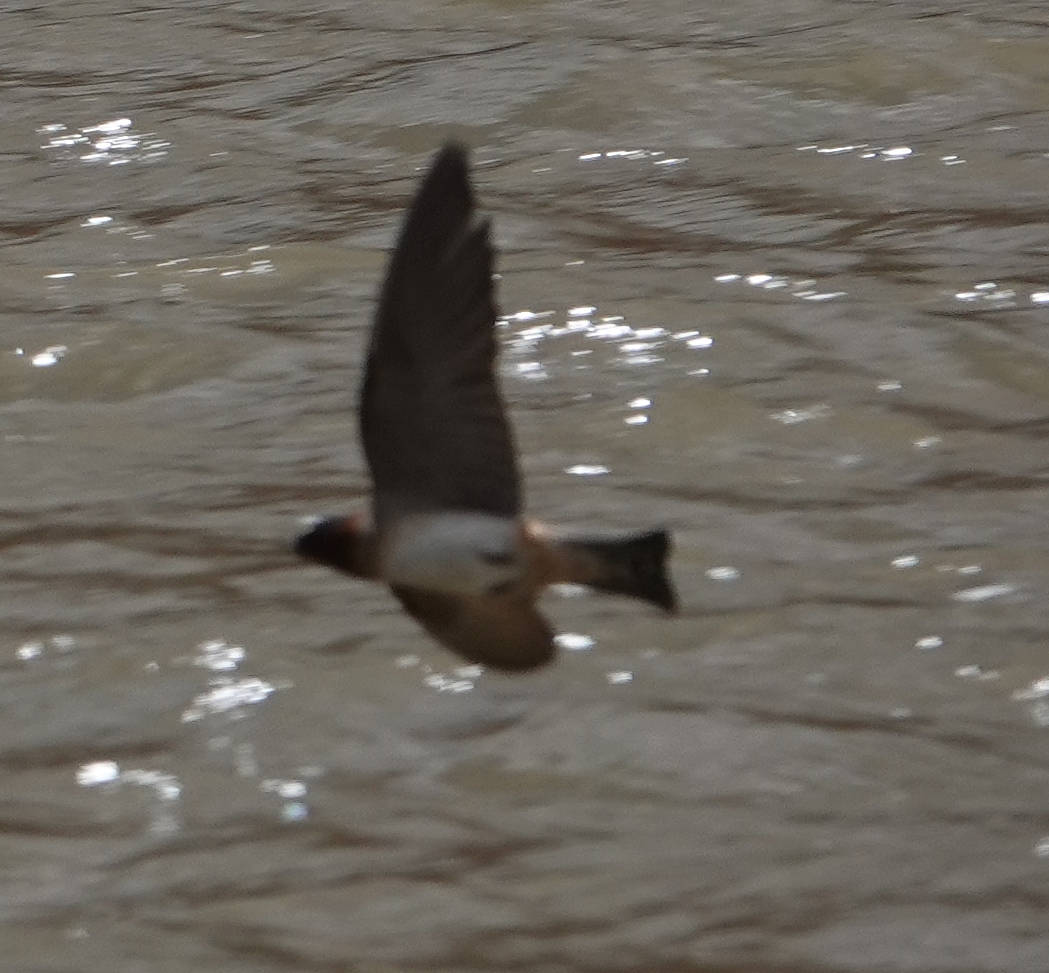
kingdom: Animalia
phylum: Chordata
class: Aves
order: Passeriformes
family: Hirundinidae
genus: Petrochelidon
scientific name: Petrochelidon pyrrhonota
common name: American cliff swallow
